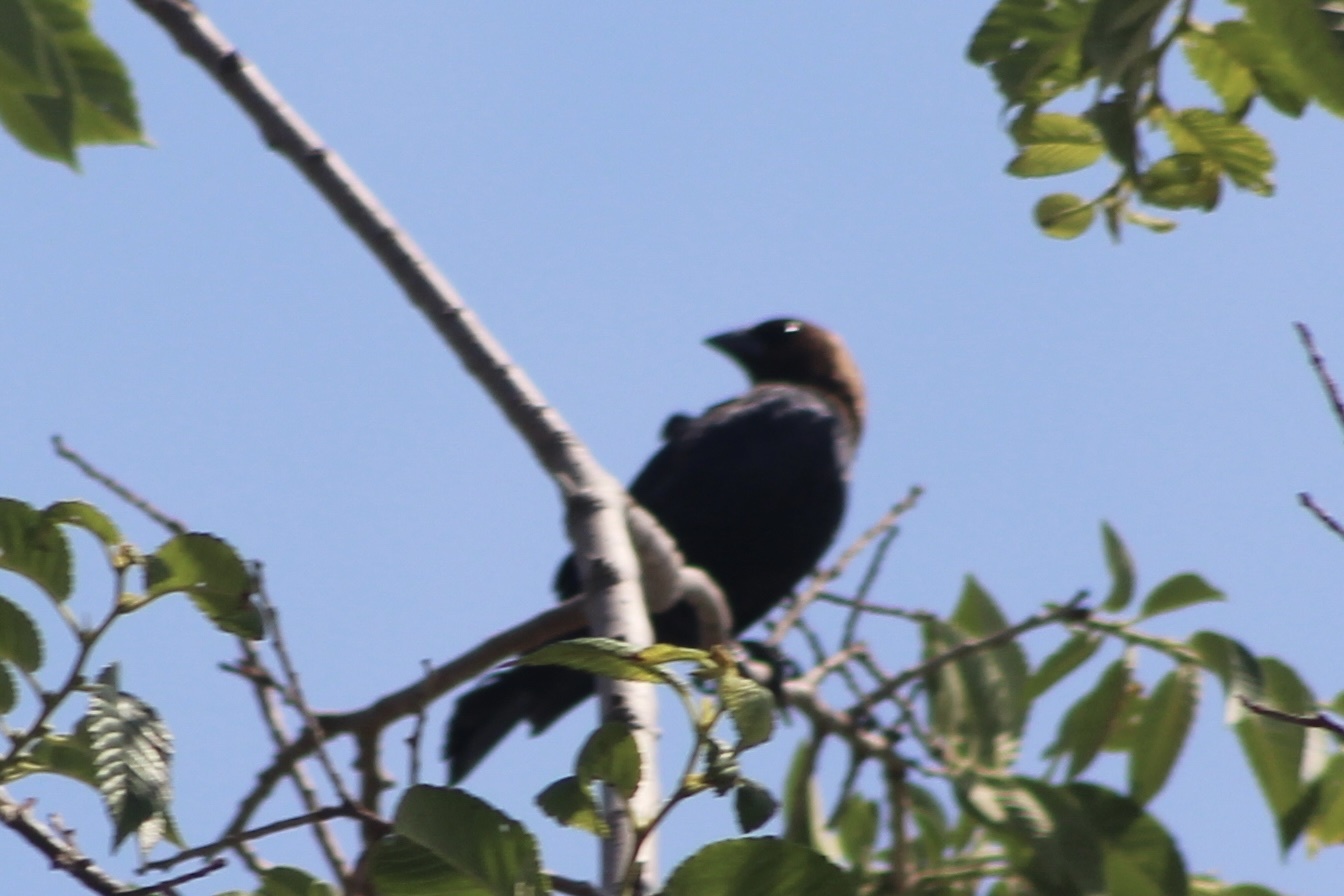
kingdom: Animalia
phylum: Chordata
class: Aves
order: Passeriformes
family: Icteridae
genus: Molothrus
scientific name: Molothrus ater
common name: Brown-headed cowbird
